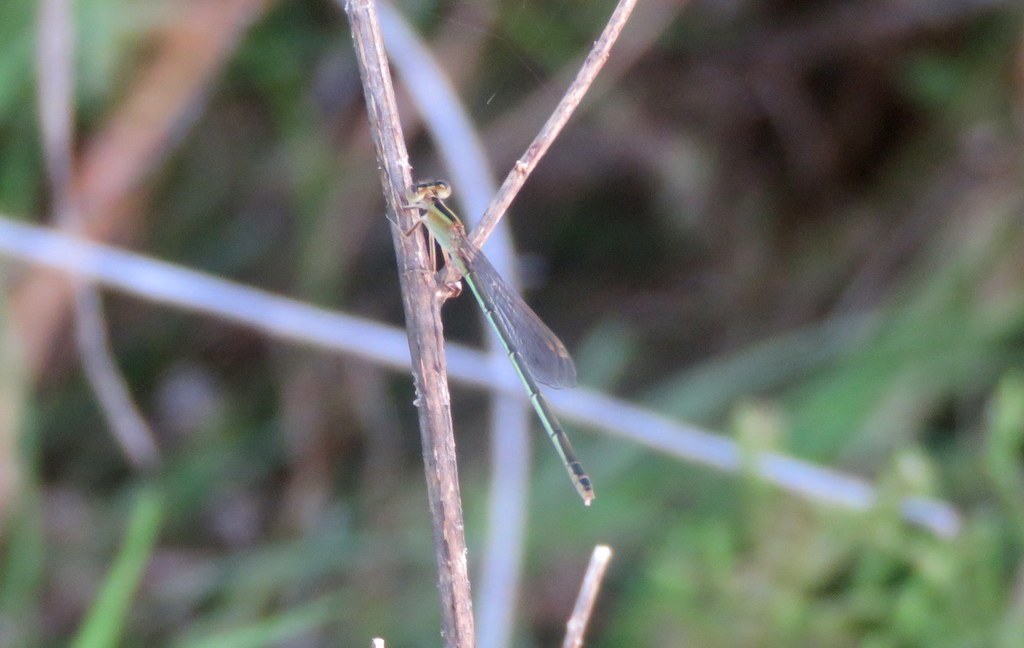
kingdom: Animalia
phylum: Arthropoda
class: Insecta
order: Odonata
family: Coenagrionidae
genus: Ischnura
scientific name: Ischnura fluviatilis
